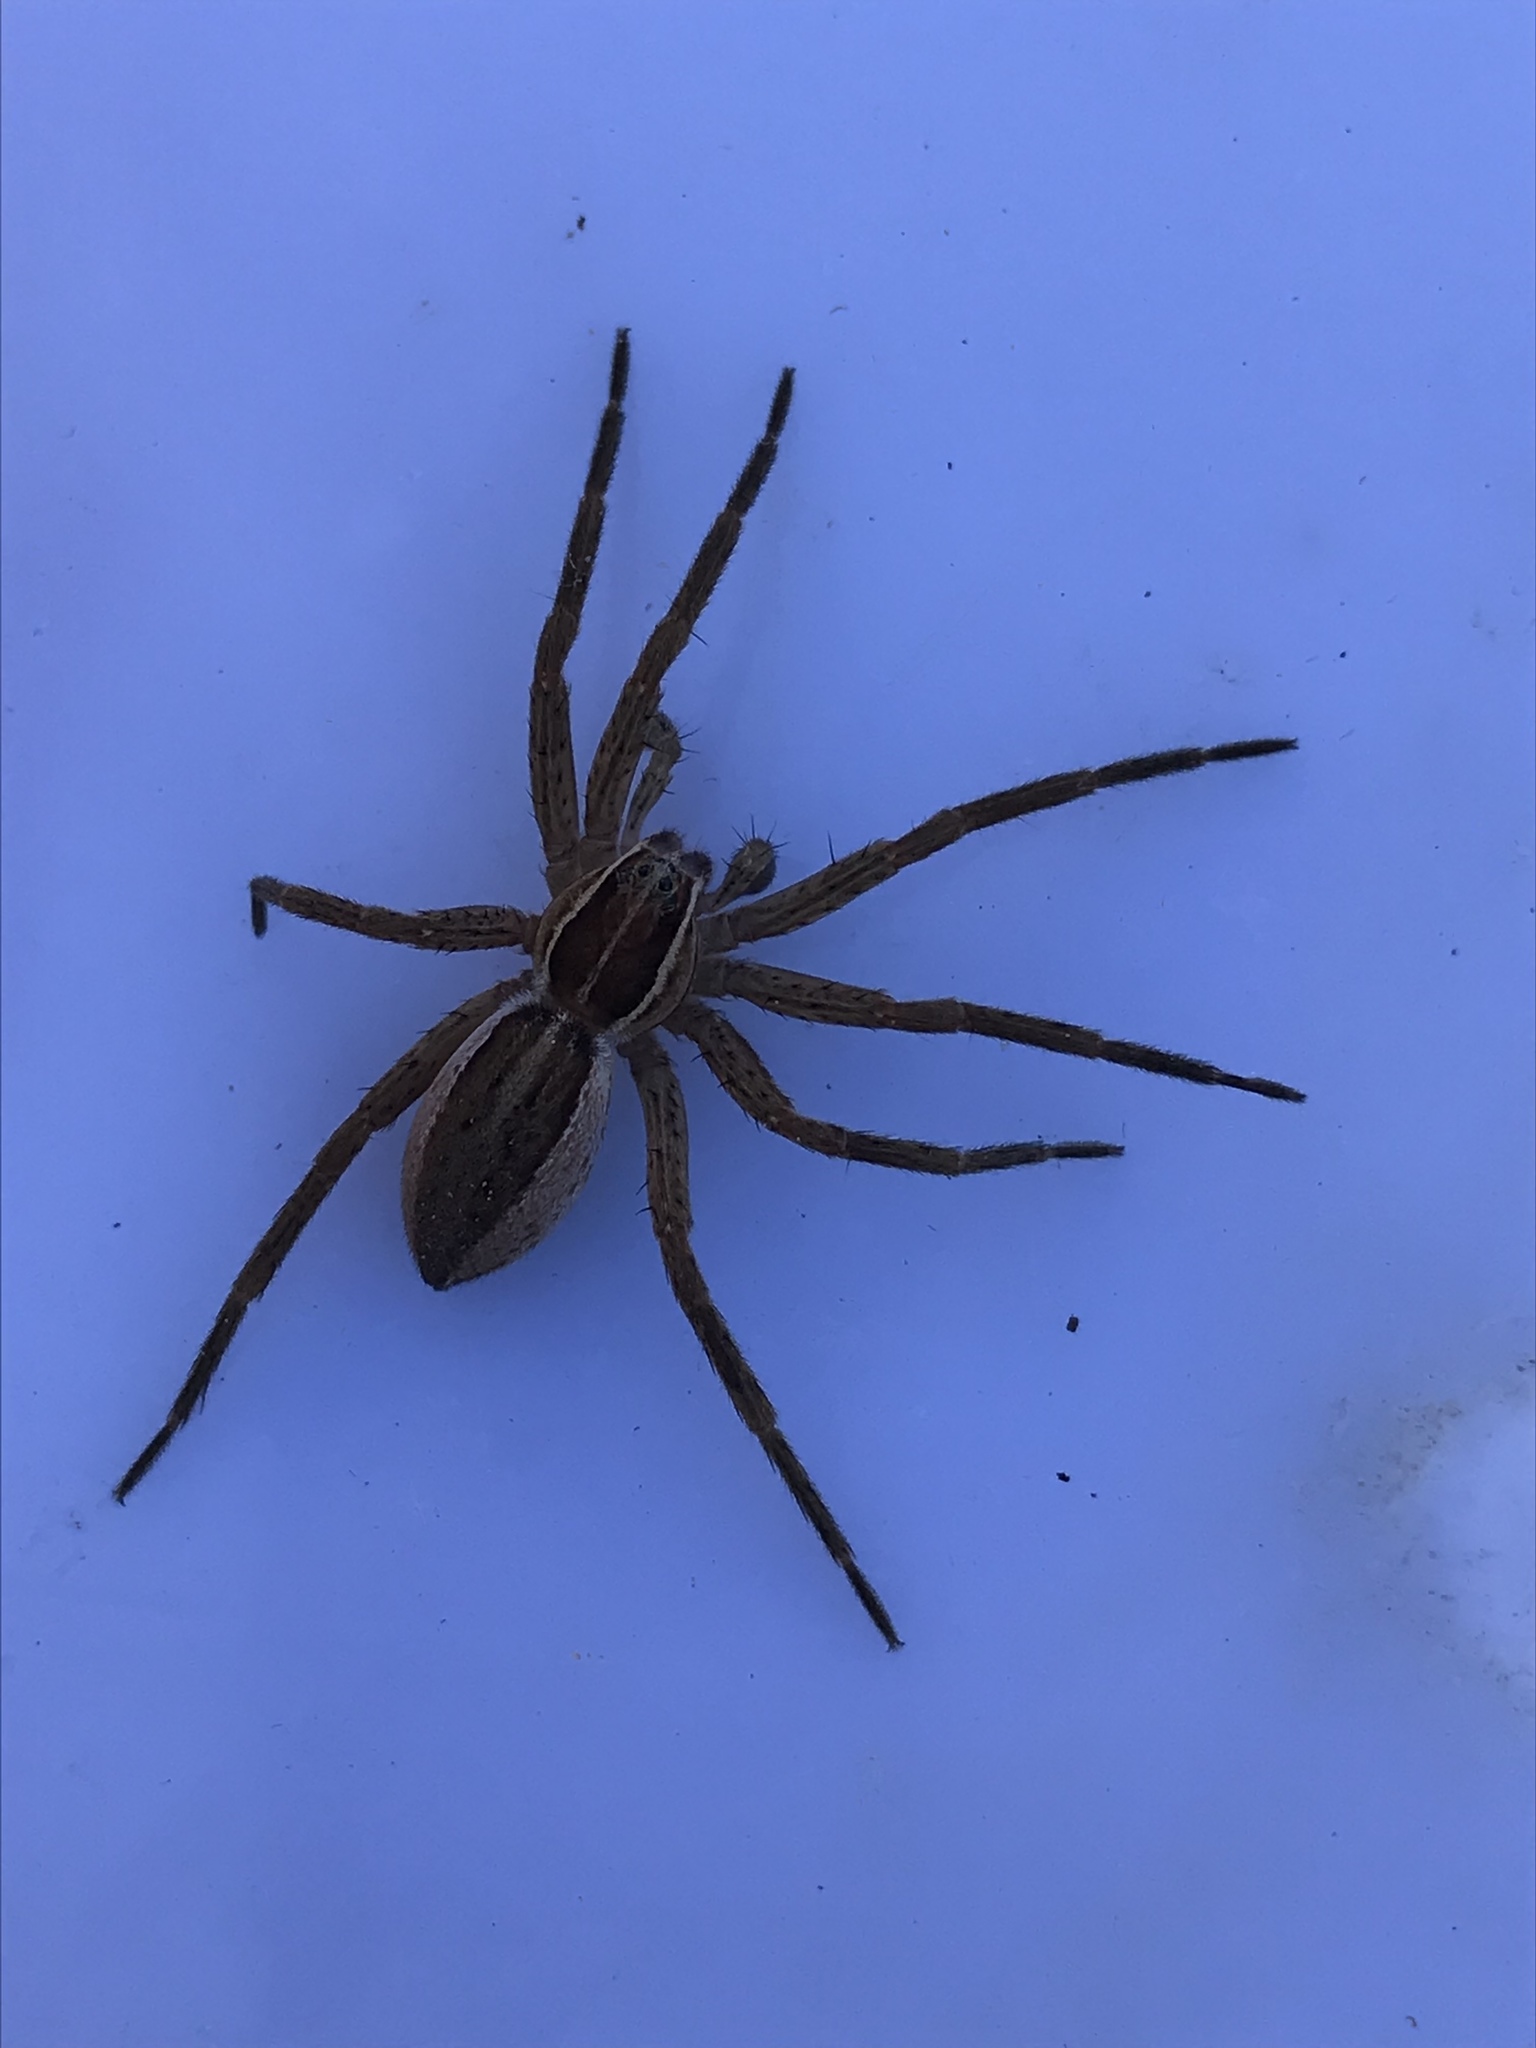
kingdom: Animalia
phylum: Arthropoda
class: Arachnida
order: Araneae
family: Pisauridae
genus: Dolomedes
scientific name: Dolomedes minor
